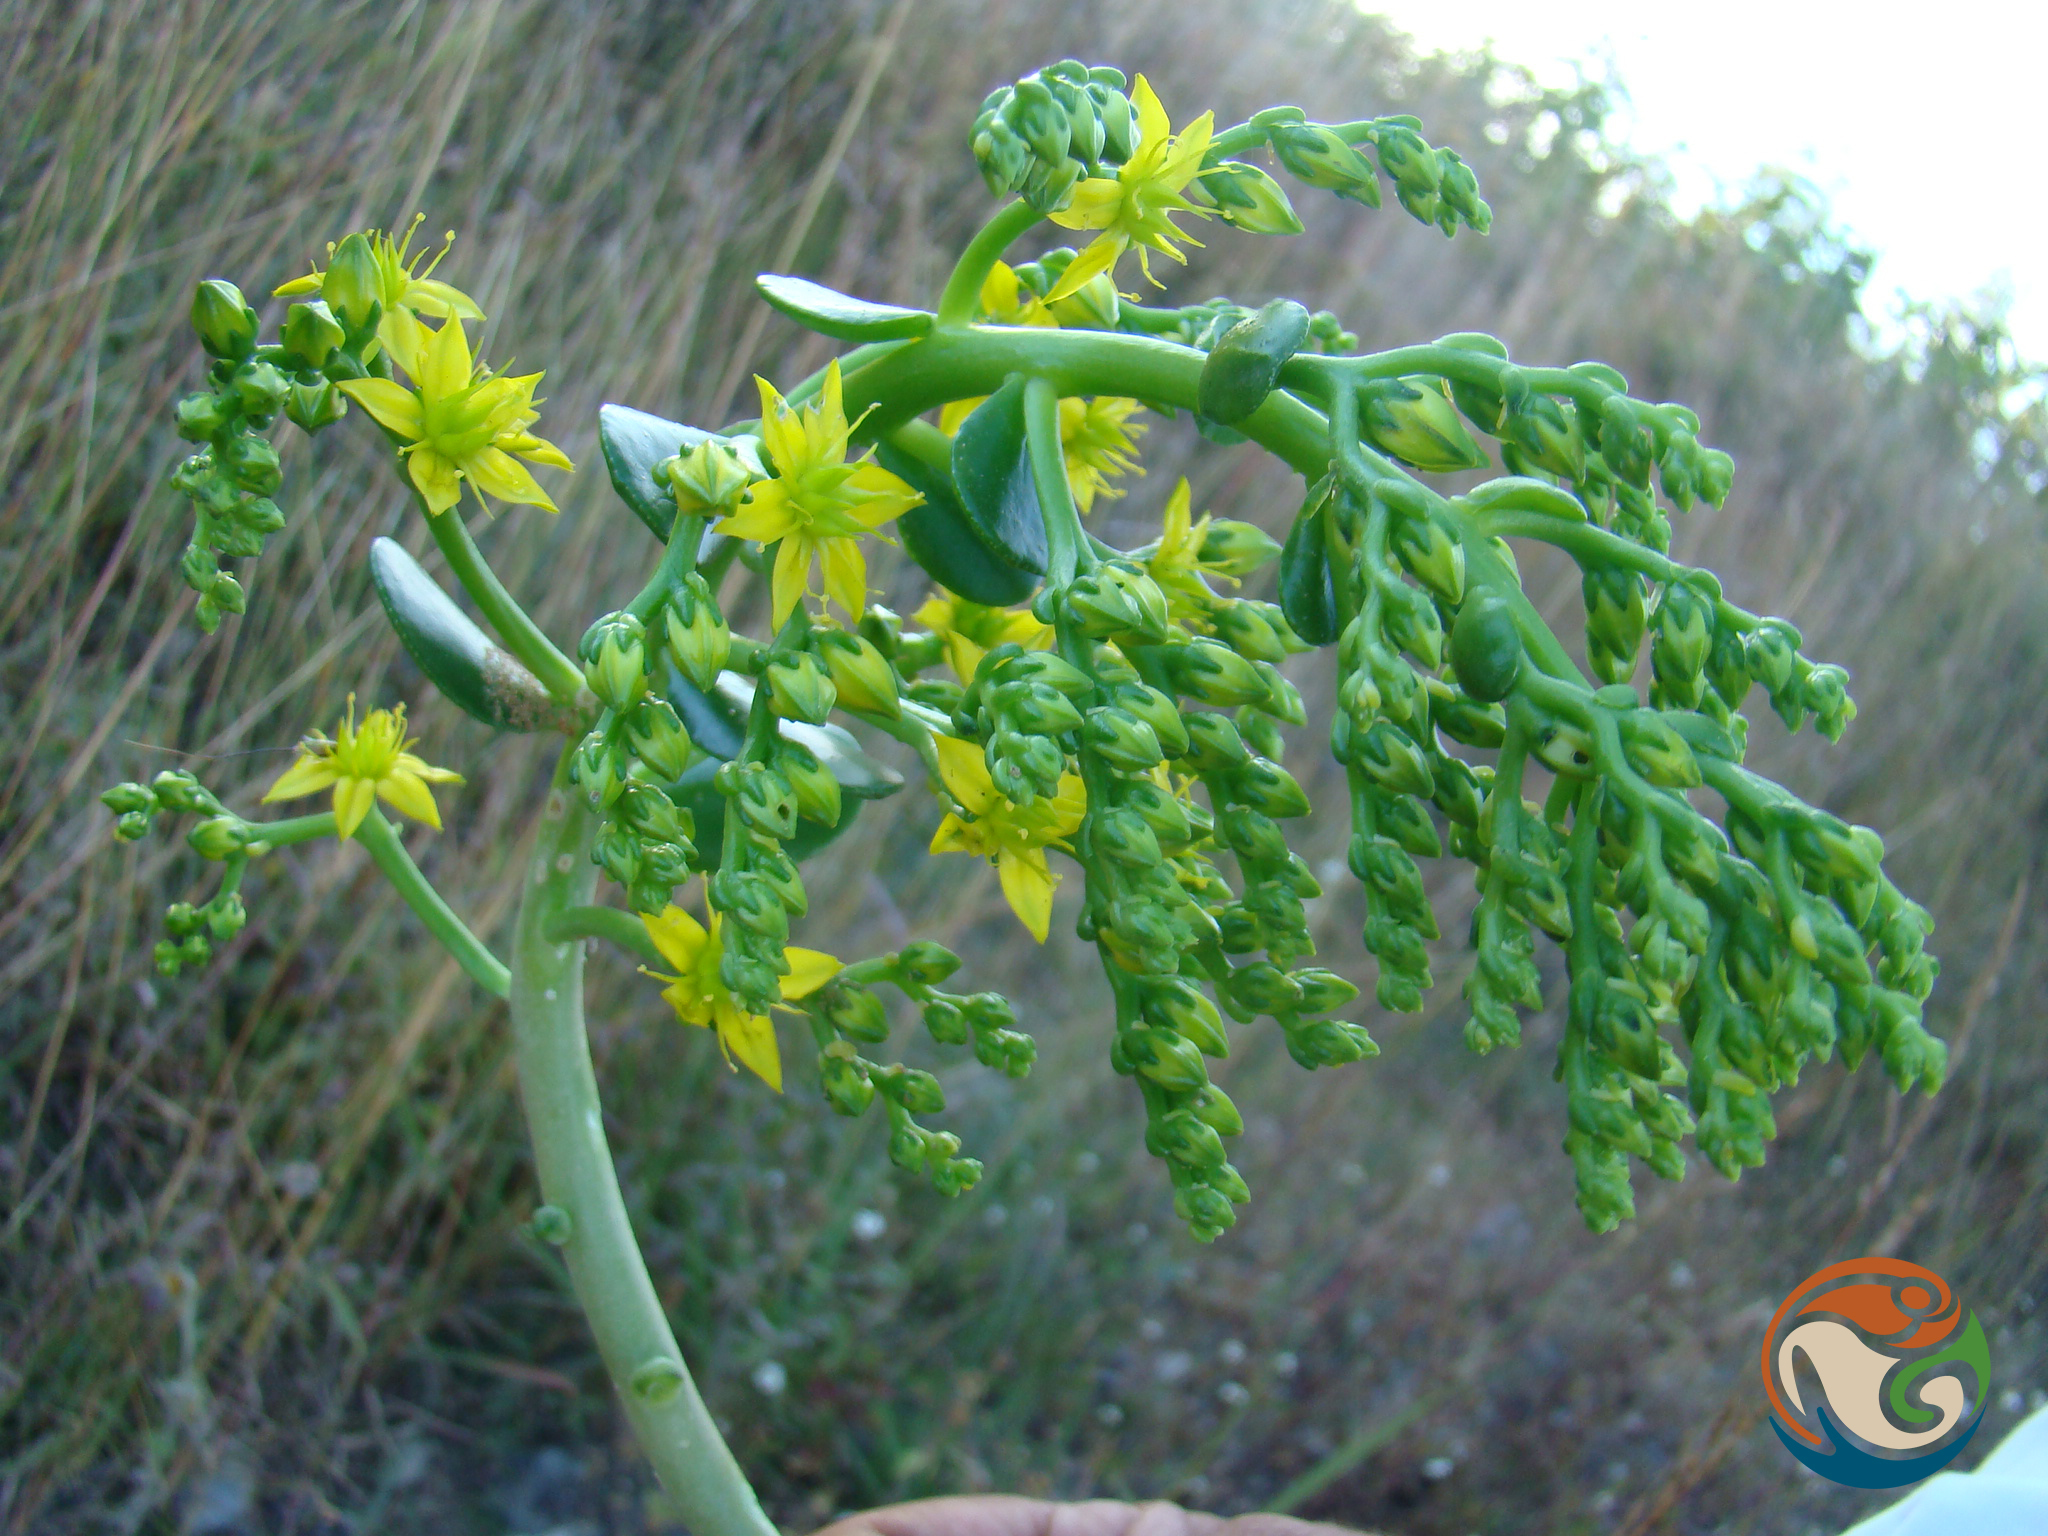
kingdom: Plantae
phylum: Tracheophyta
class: Magnoliopsida
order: Saxifragales
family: Crassulaceae
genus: Sedum
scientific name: Sedum dendroideum
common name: Tree stonecrop
